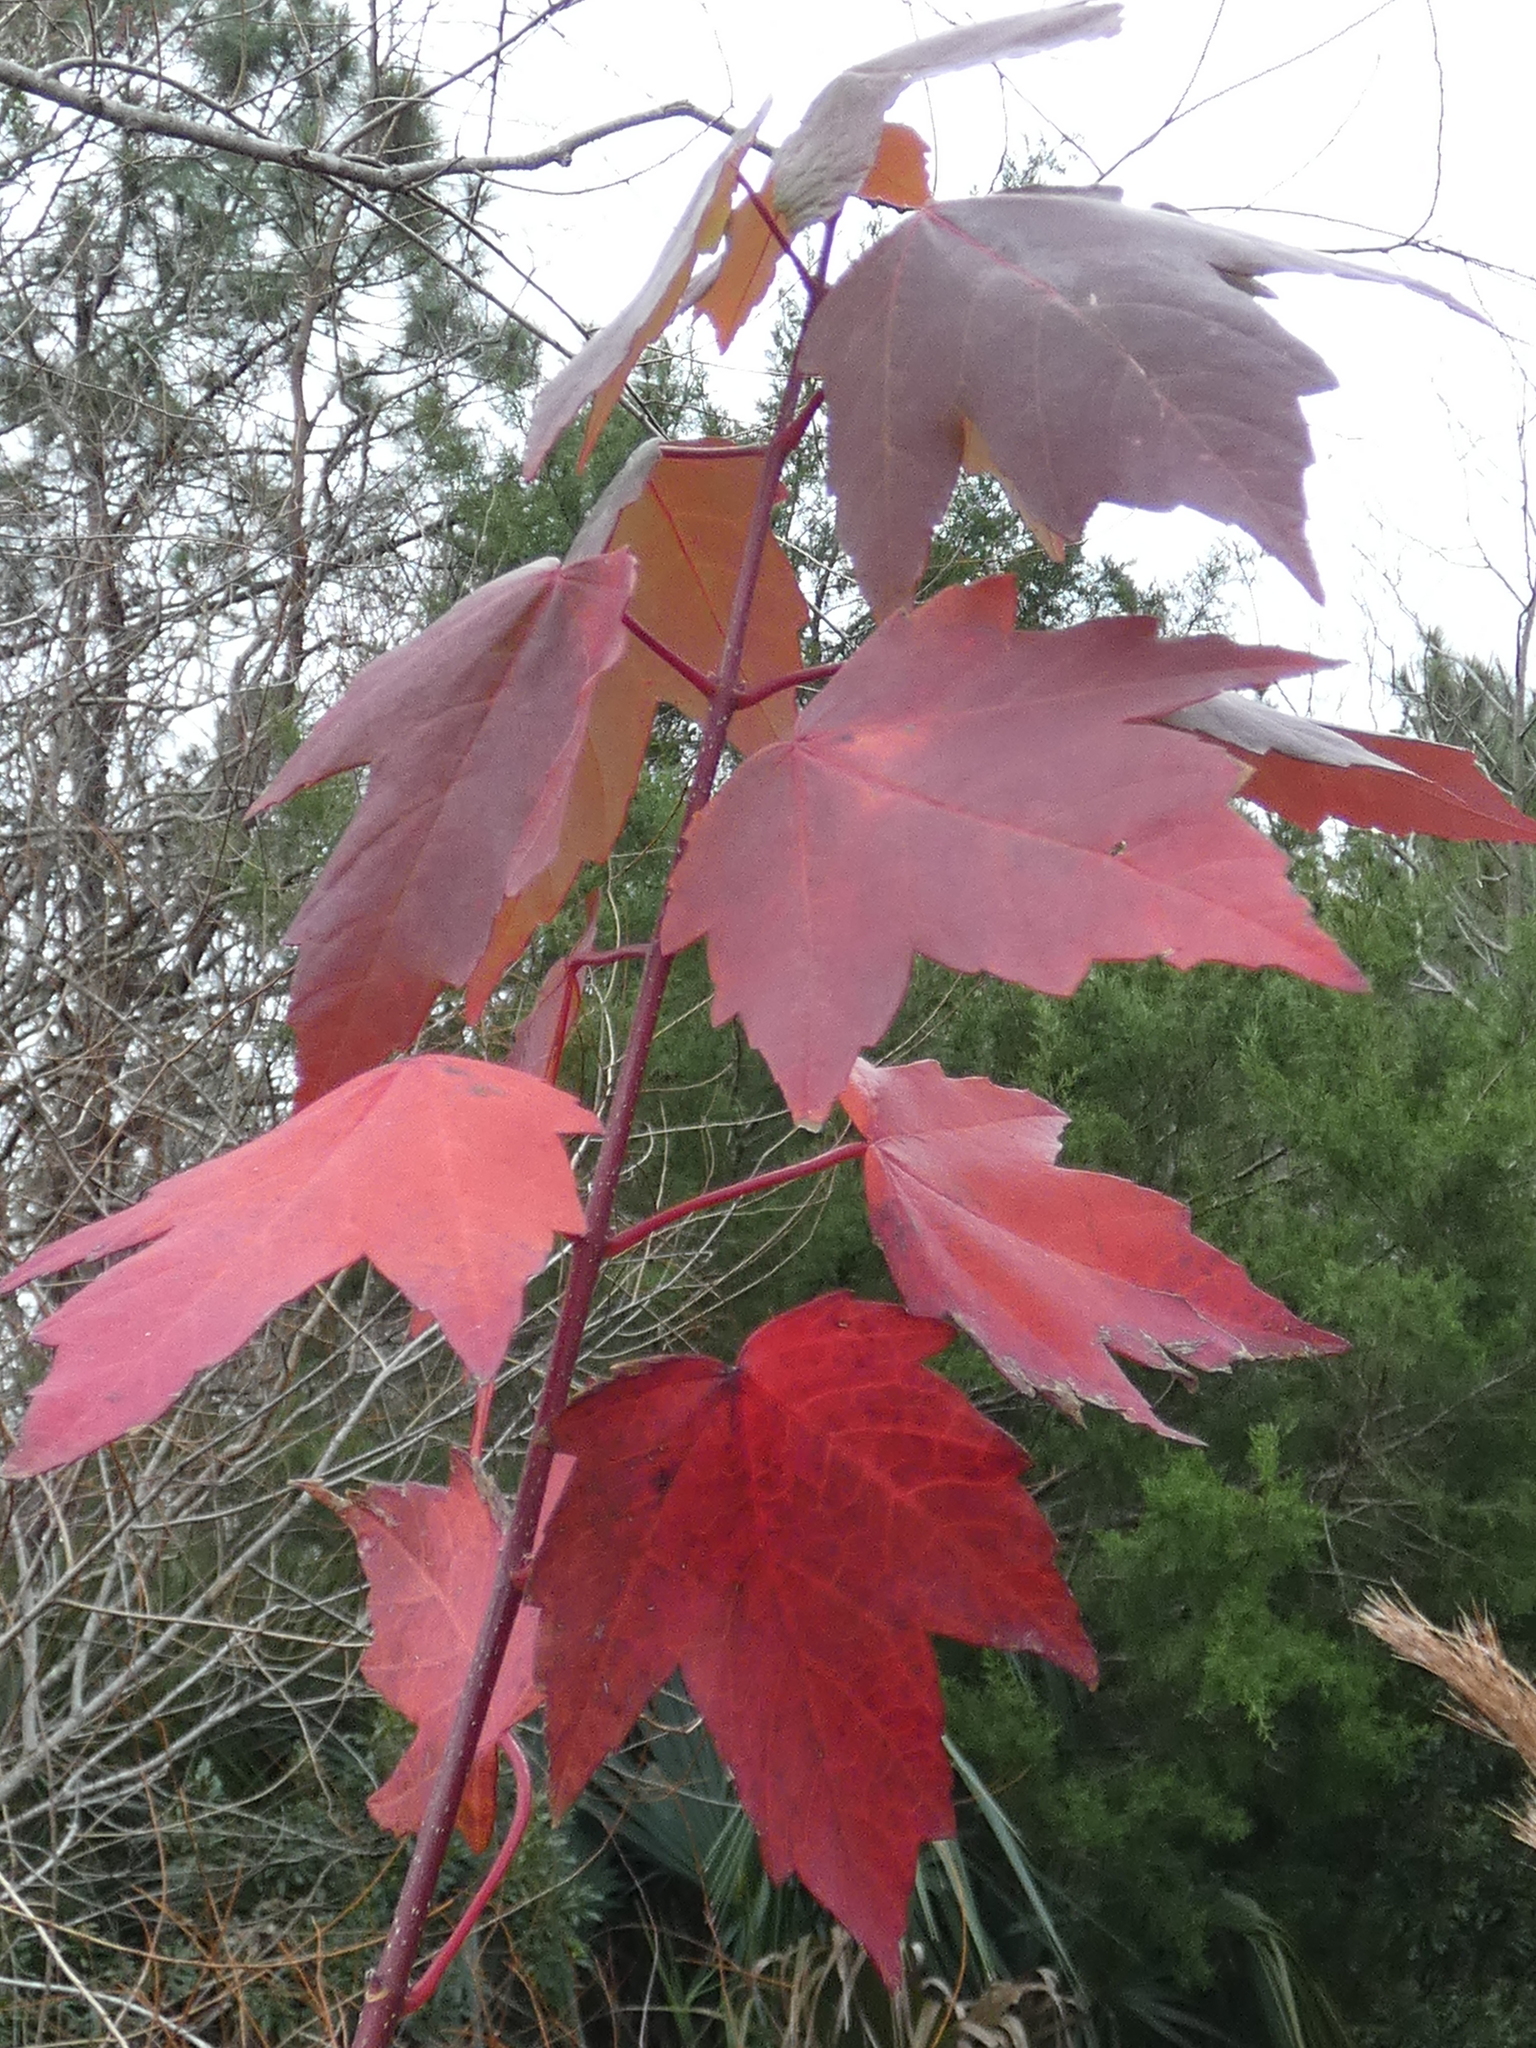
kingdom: Plantae
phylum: Tracheophyta
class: Magnoliopsida
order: Sapindales
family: Sapindaceae
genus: Acer
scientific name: Acer rubrum
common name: Red maple
